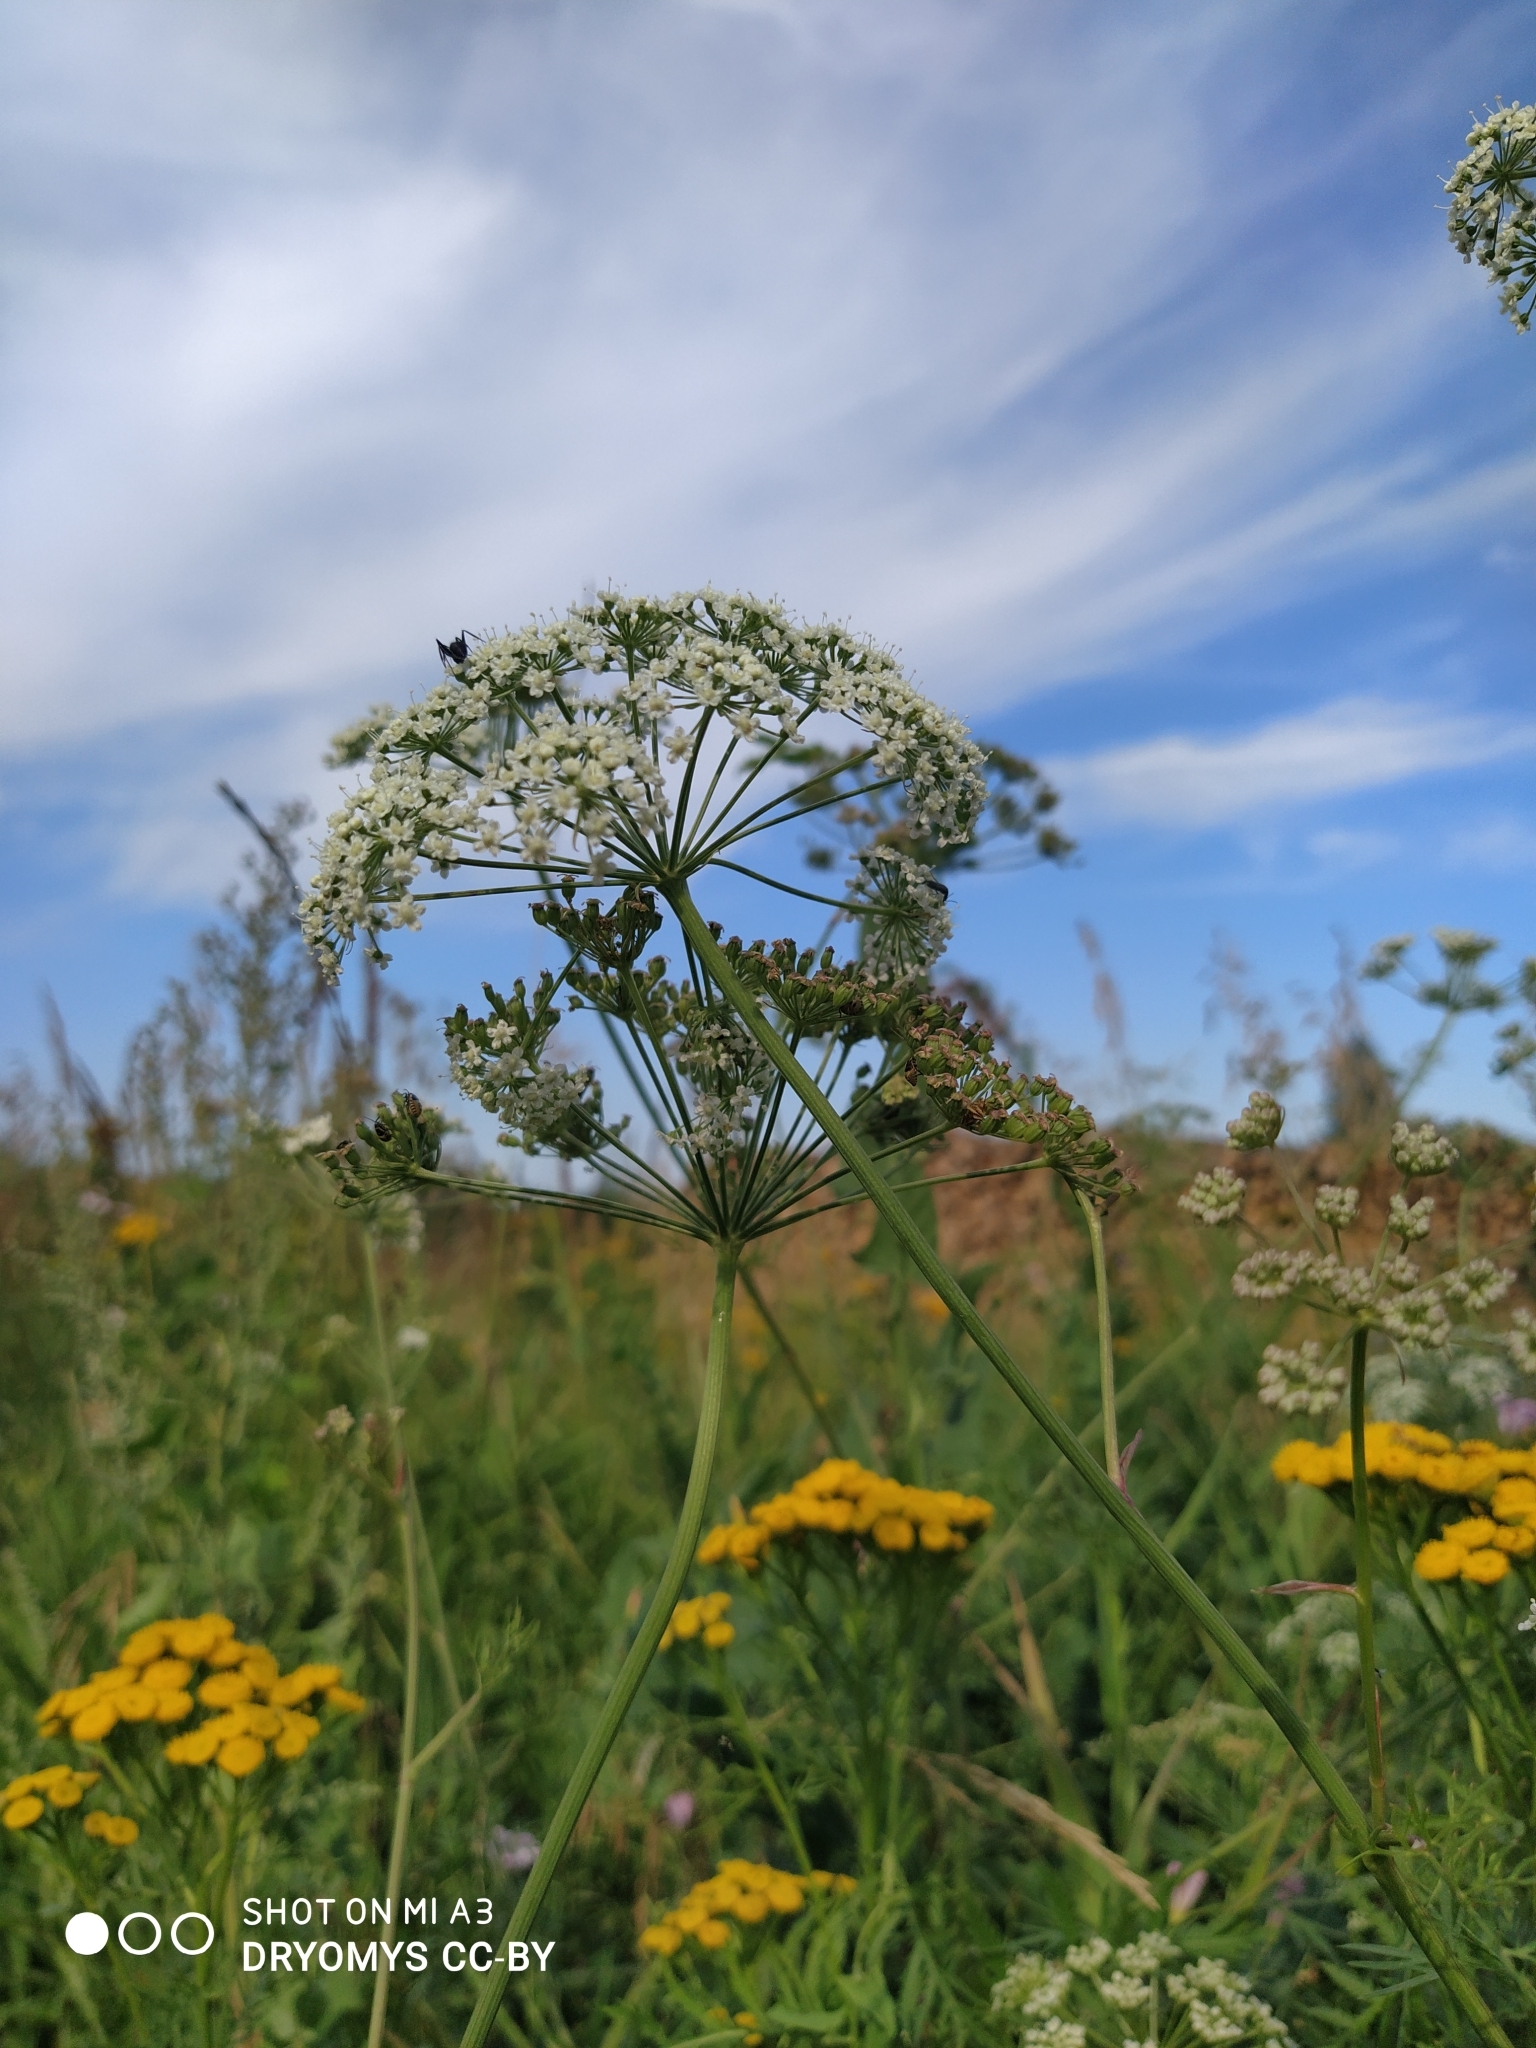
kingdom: Plantae
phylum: Tracheophyta
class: Magnoliopsida
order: Apiales
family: Apiaceae
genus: Cenolophium
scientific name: Cenolophium fischeri
